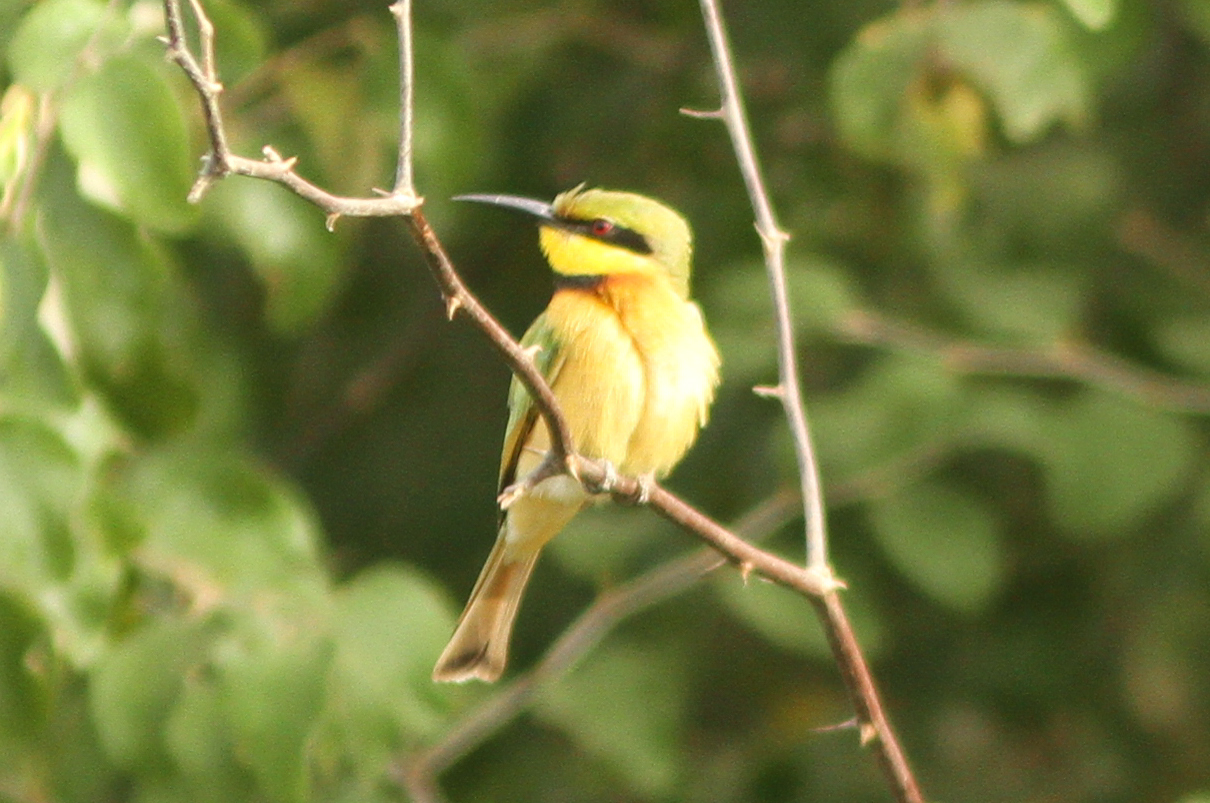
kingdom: Animalia
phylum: Chordata
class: Aves
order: Coraciiformes
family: Meropidae
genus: Merops
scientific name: Merops pusillus
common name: Little bee-eater
